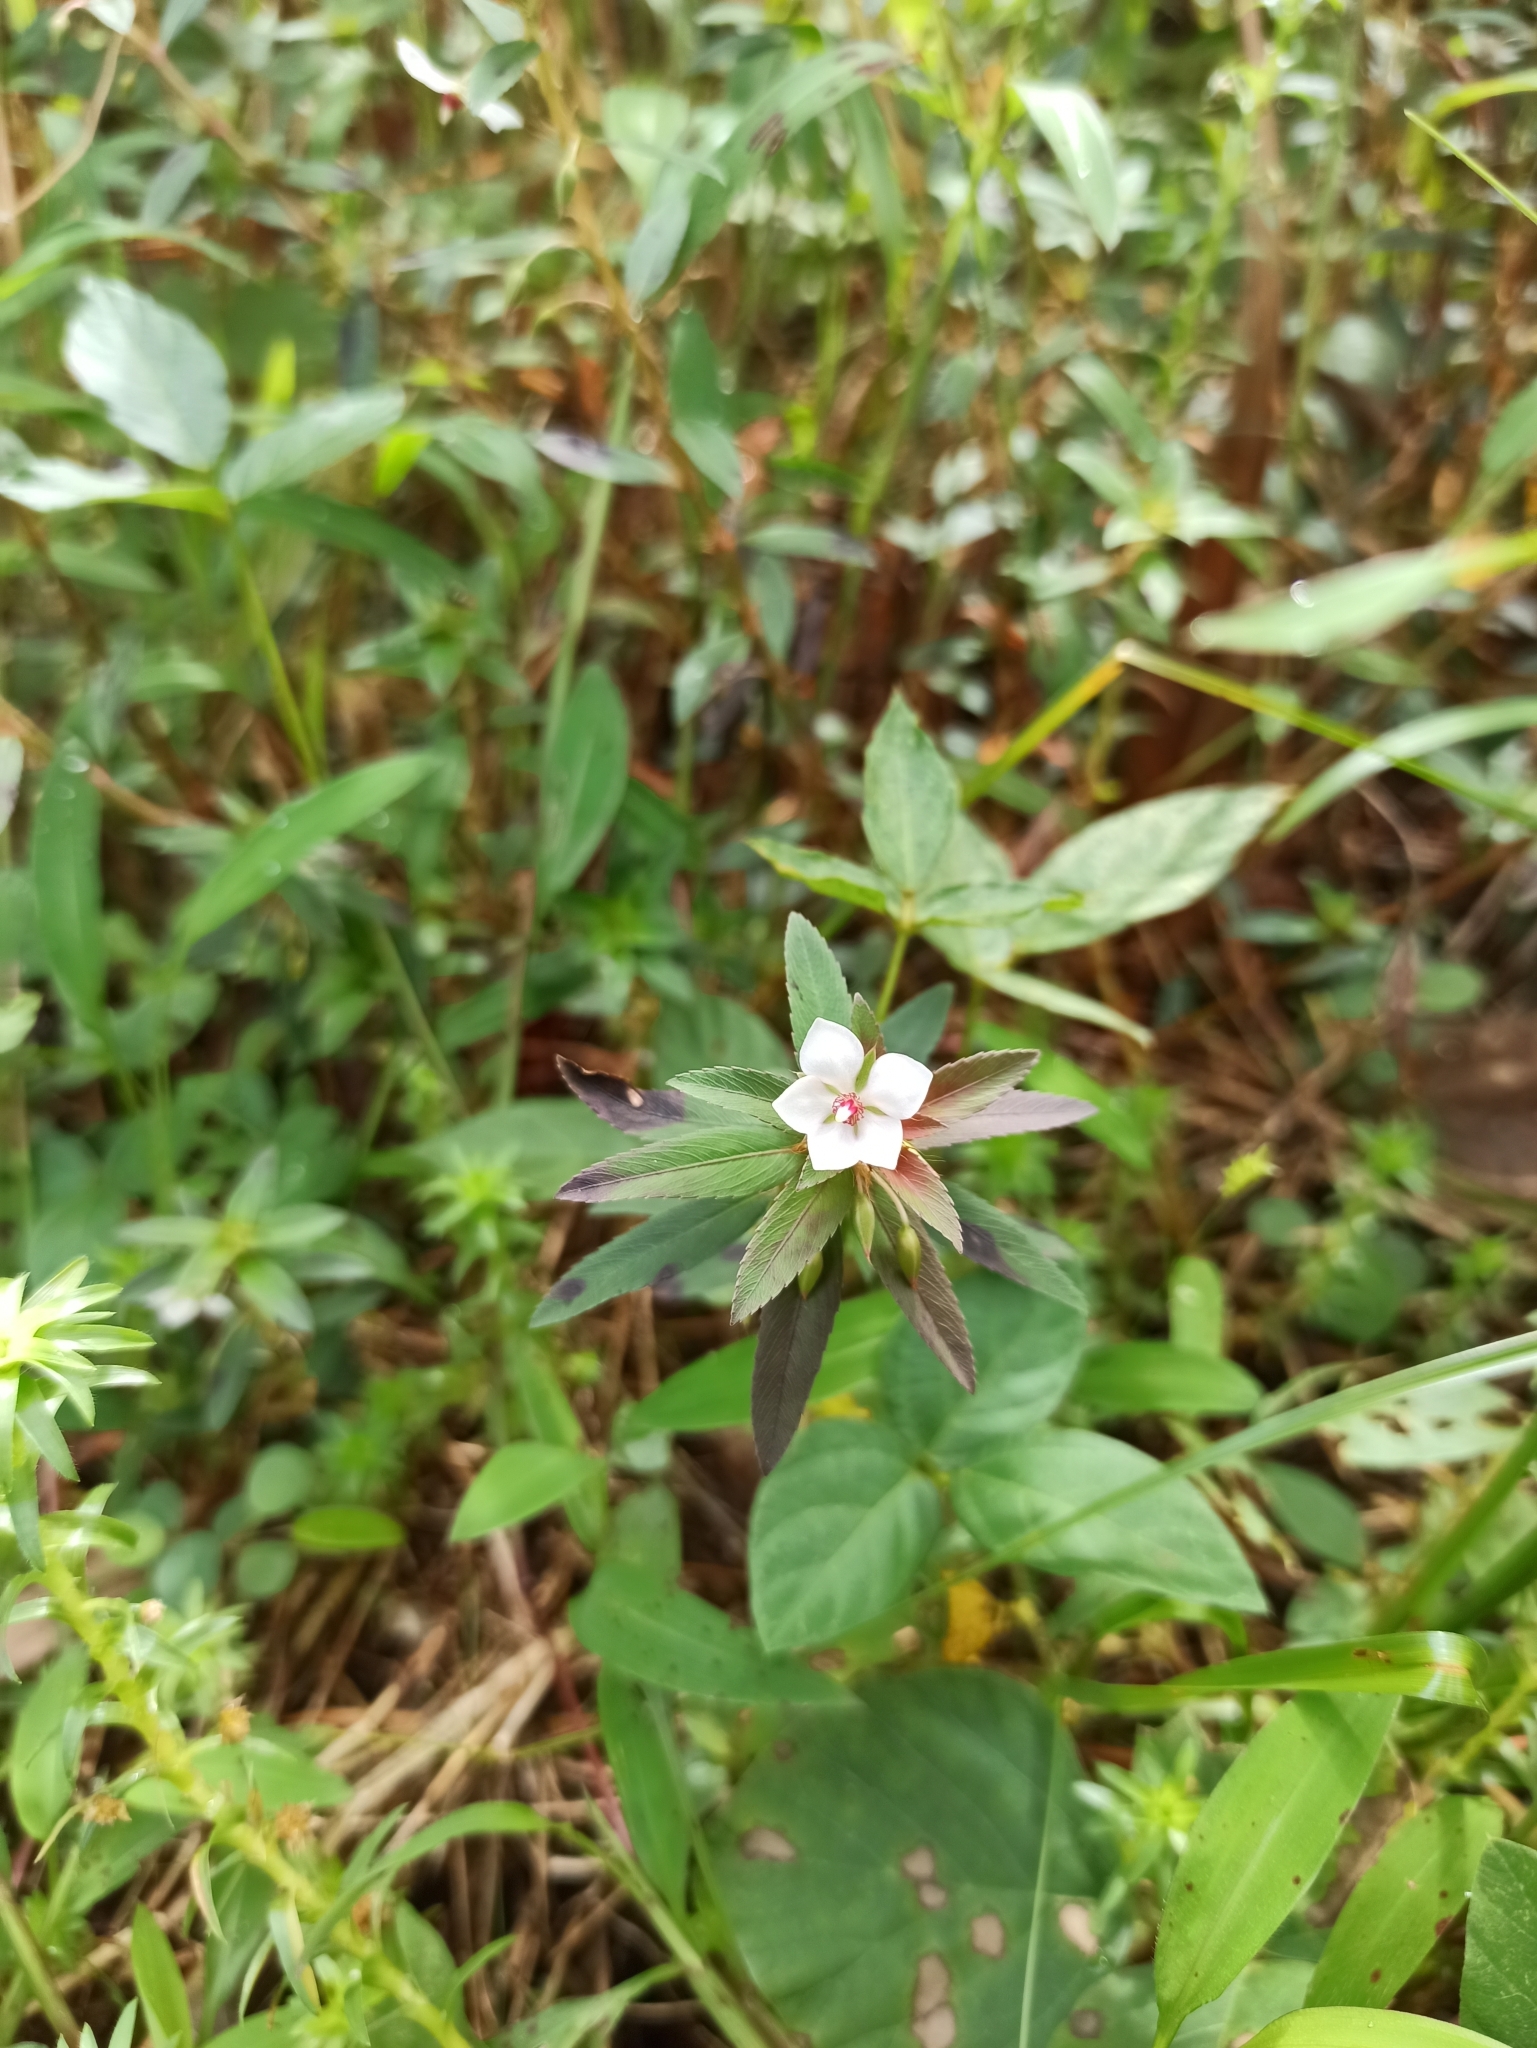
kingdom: Plantae
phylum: Tracheophyta
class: Magnoliopsida
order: Malpighiales
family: Ochnaceae
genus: Sauvagesia
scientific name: Sauvagesia erecta
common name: Creole tea
